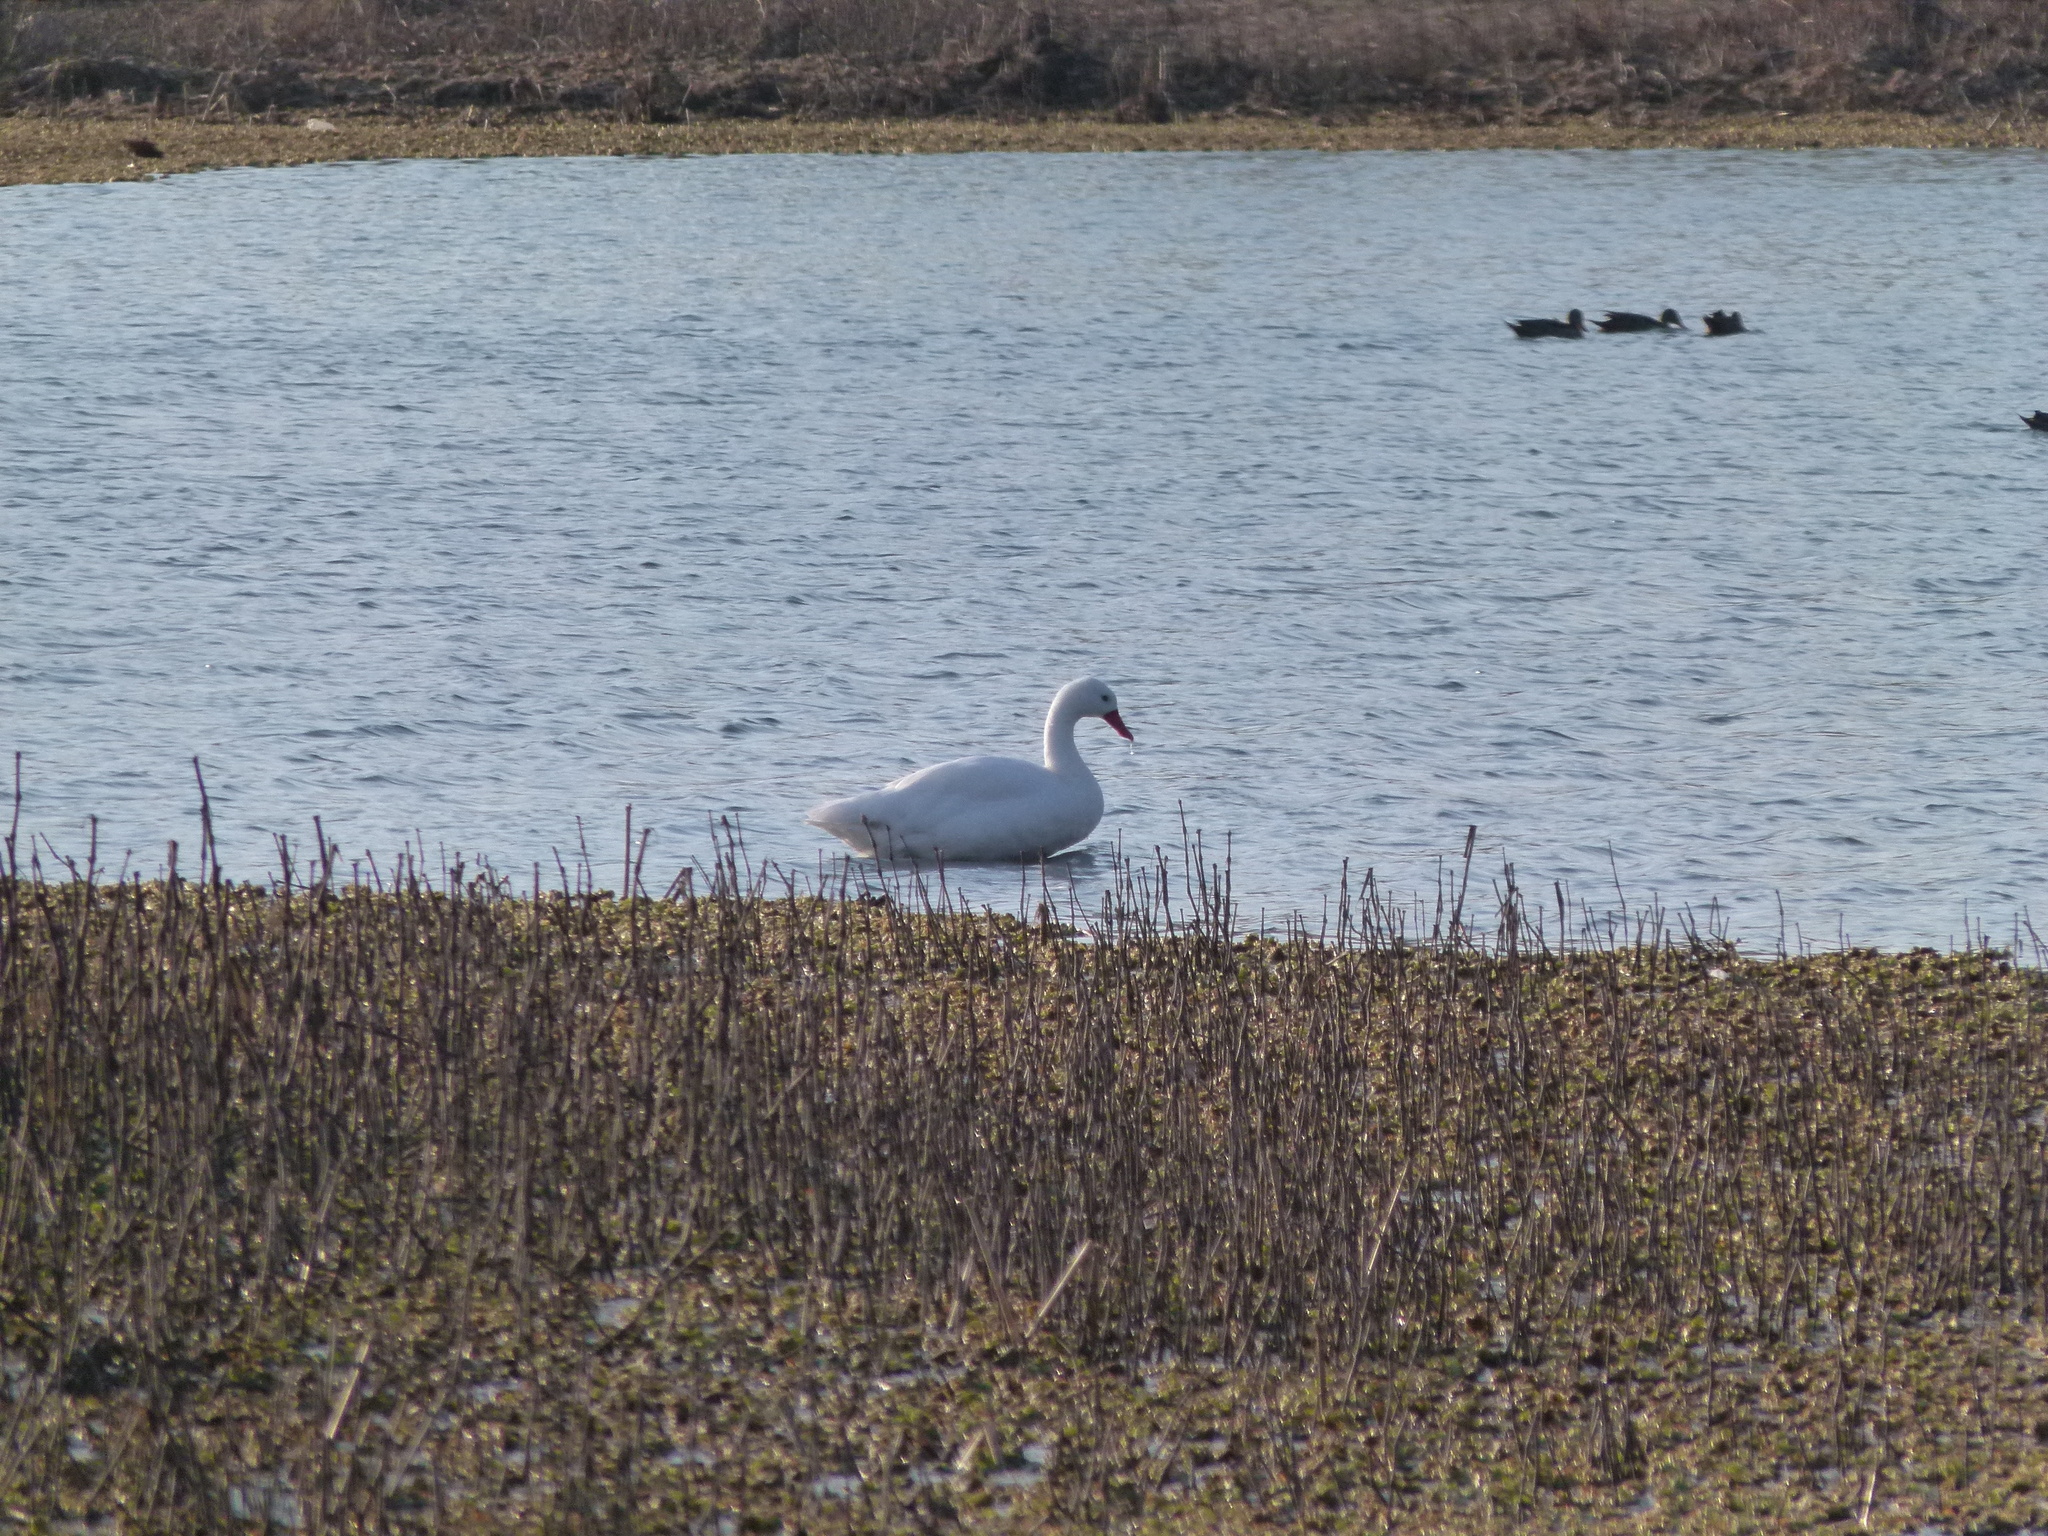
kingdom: Animalia
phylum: Chordata
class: Aves
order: Anseriformes
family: Anatidae
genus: Coscoroba
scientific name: Coscoroba coscoroba
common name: Coscoroba swan
